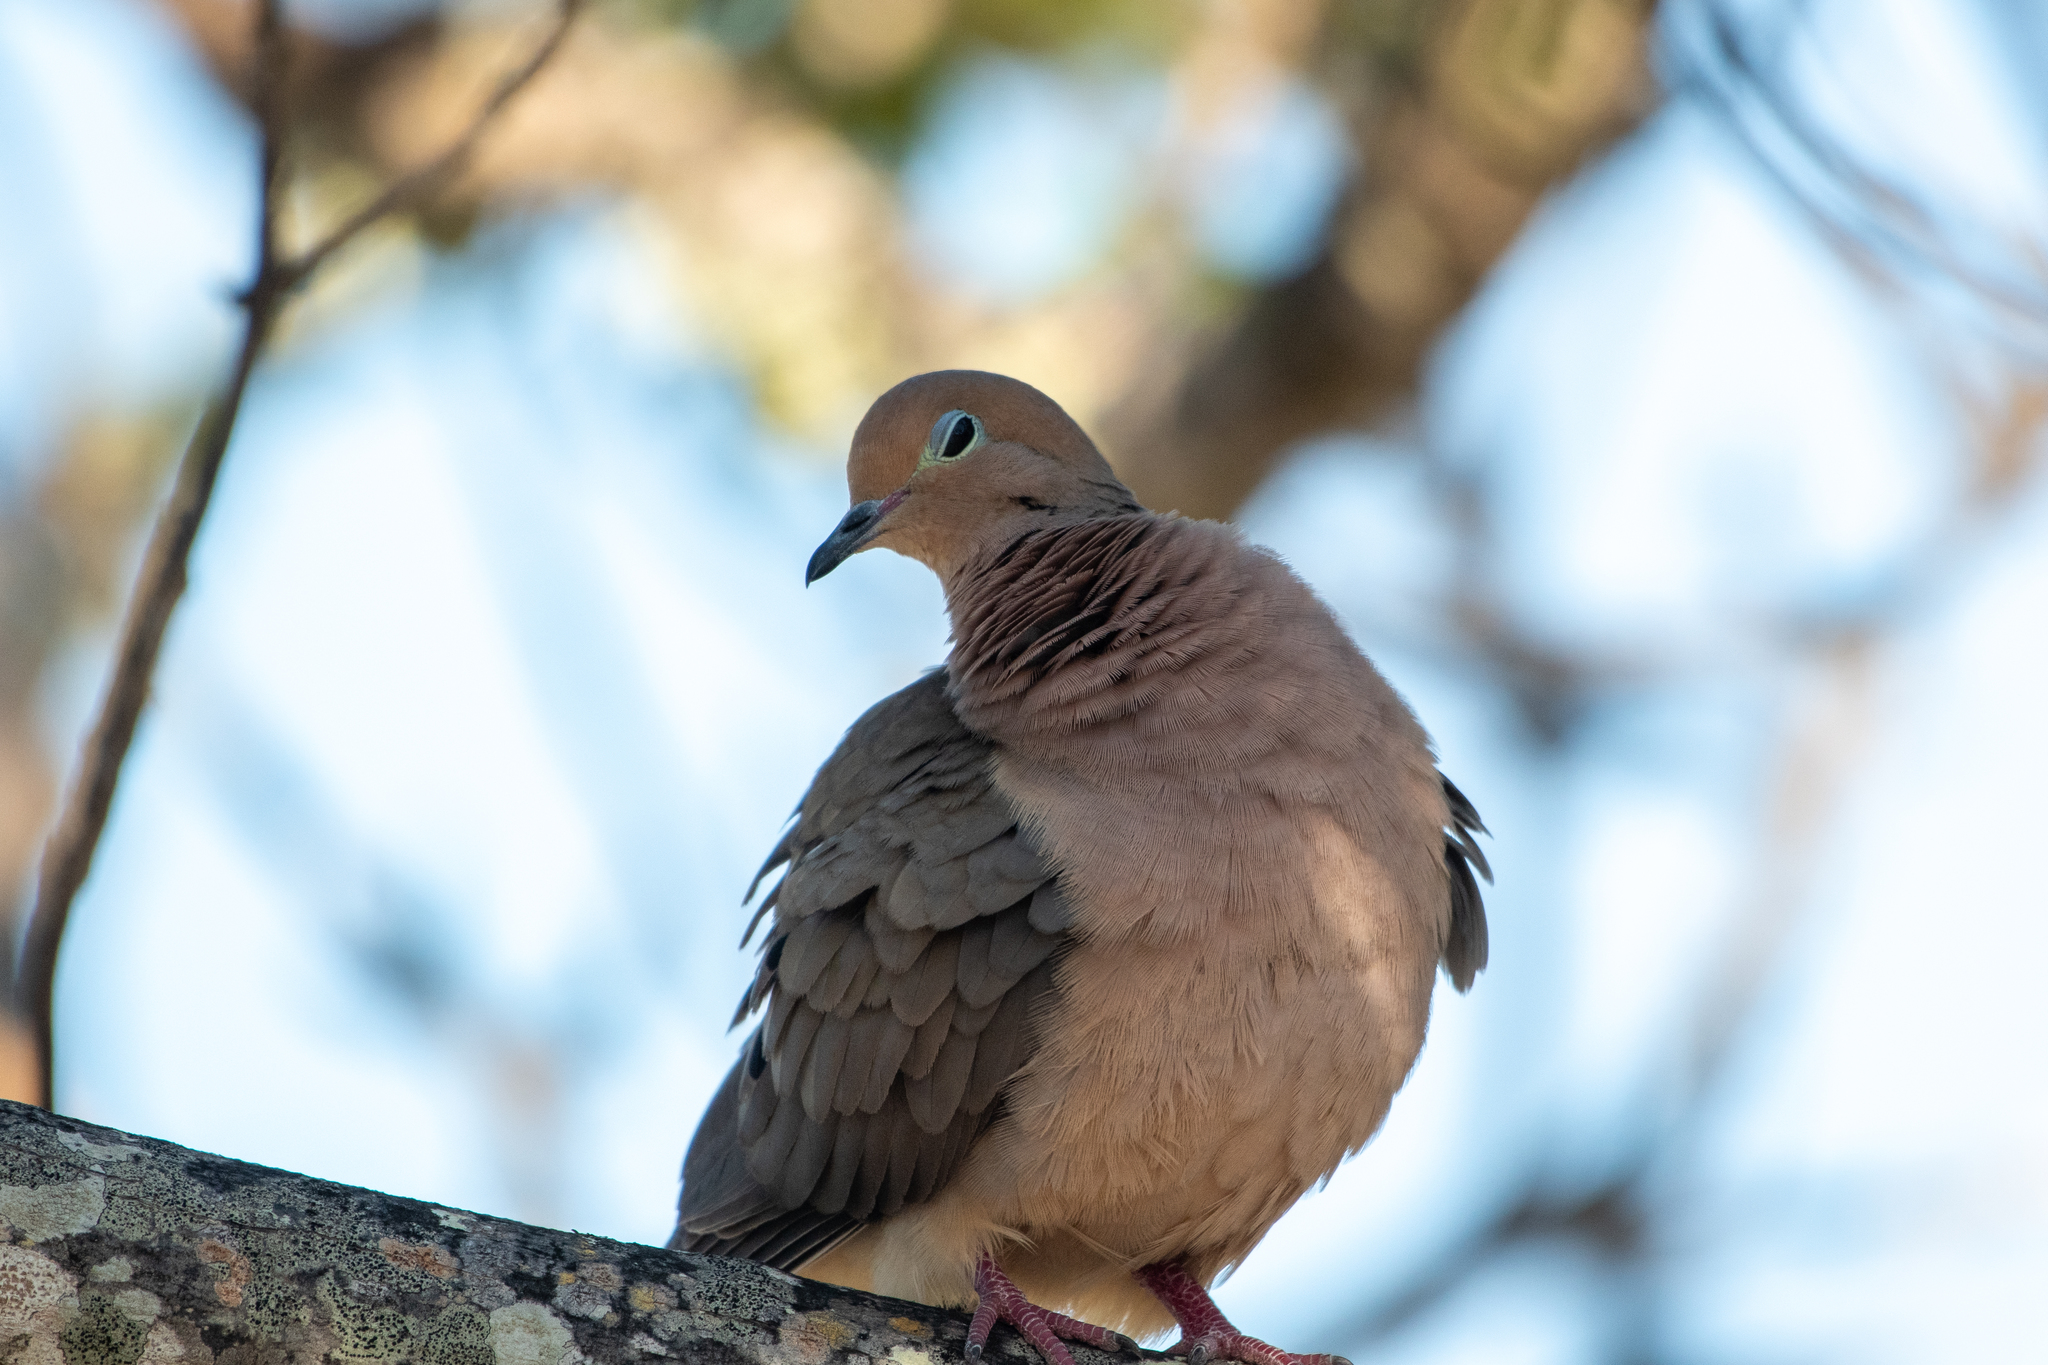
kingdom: Animalia
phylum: Chordata
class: Aves
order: Columbiformes
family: Columbidae
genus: Zenaida
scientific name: Zenaida macroura
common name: Mourning dove
